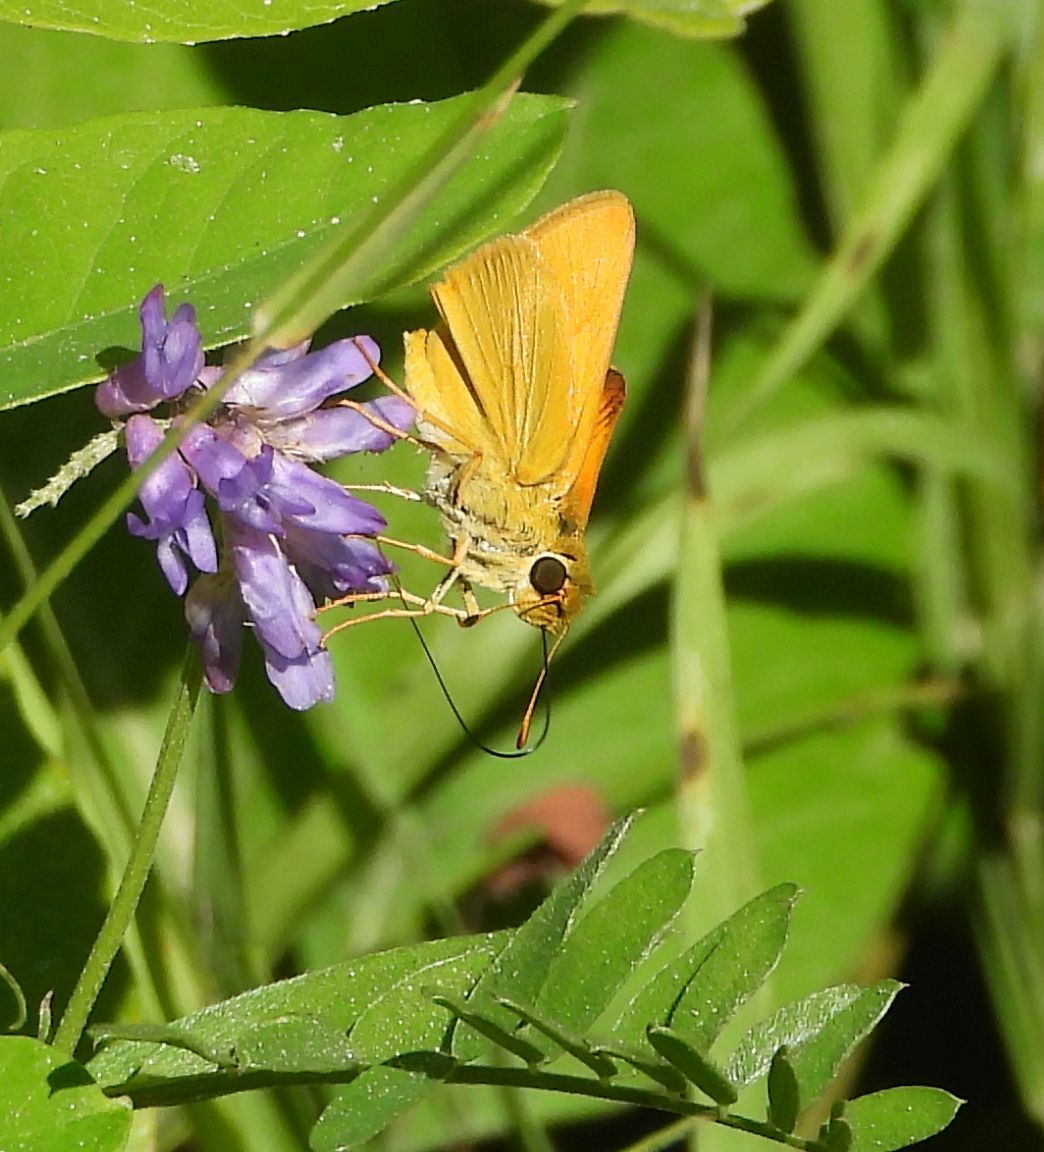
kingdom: Animalia
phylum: Arthropoda
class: Insecta
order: Lepidoptera
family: Hesperiidae
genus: Atrytone
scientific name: Atrytone delaware
